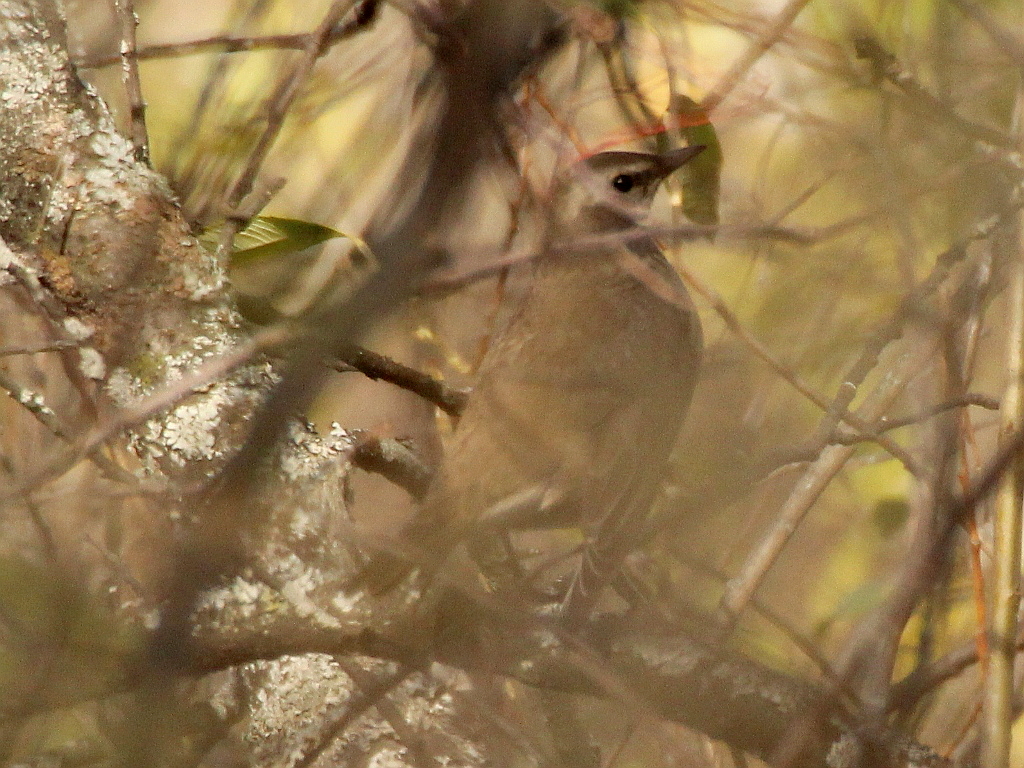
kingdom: Animalia
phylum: Chordata
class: Aves
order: Passeriformes
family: Turdidae
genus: Turdus
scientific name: Turdus iliacus
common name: Redwing
